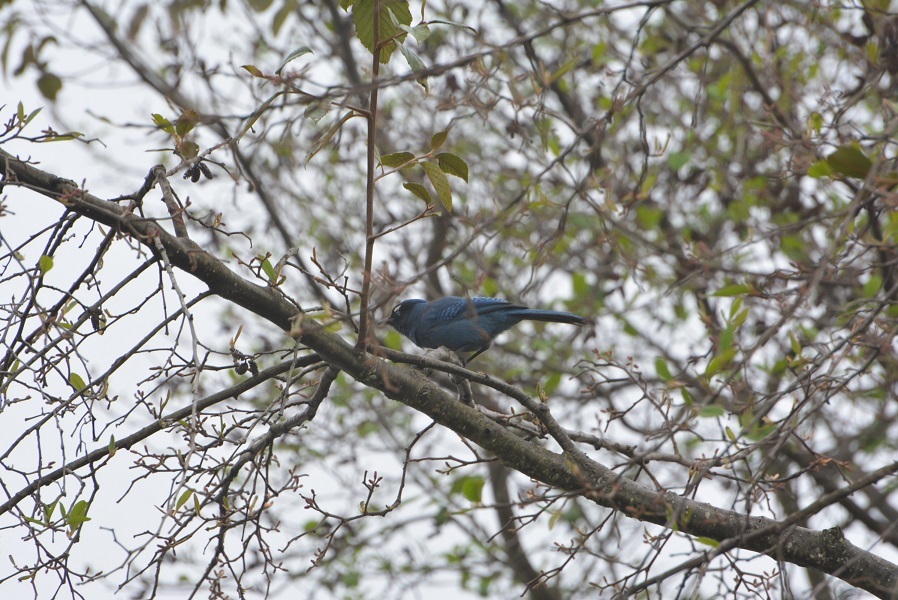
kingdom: Animalia
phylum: Chordata
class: Aves
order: Passeriformes
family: Corvidae
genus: Cyanocitta
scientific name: Cyanocitta stelleri
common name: Steller's jay
